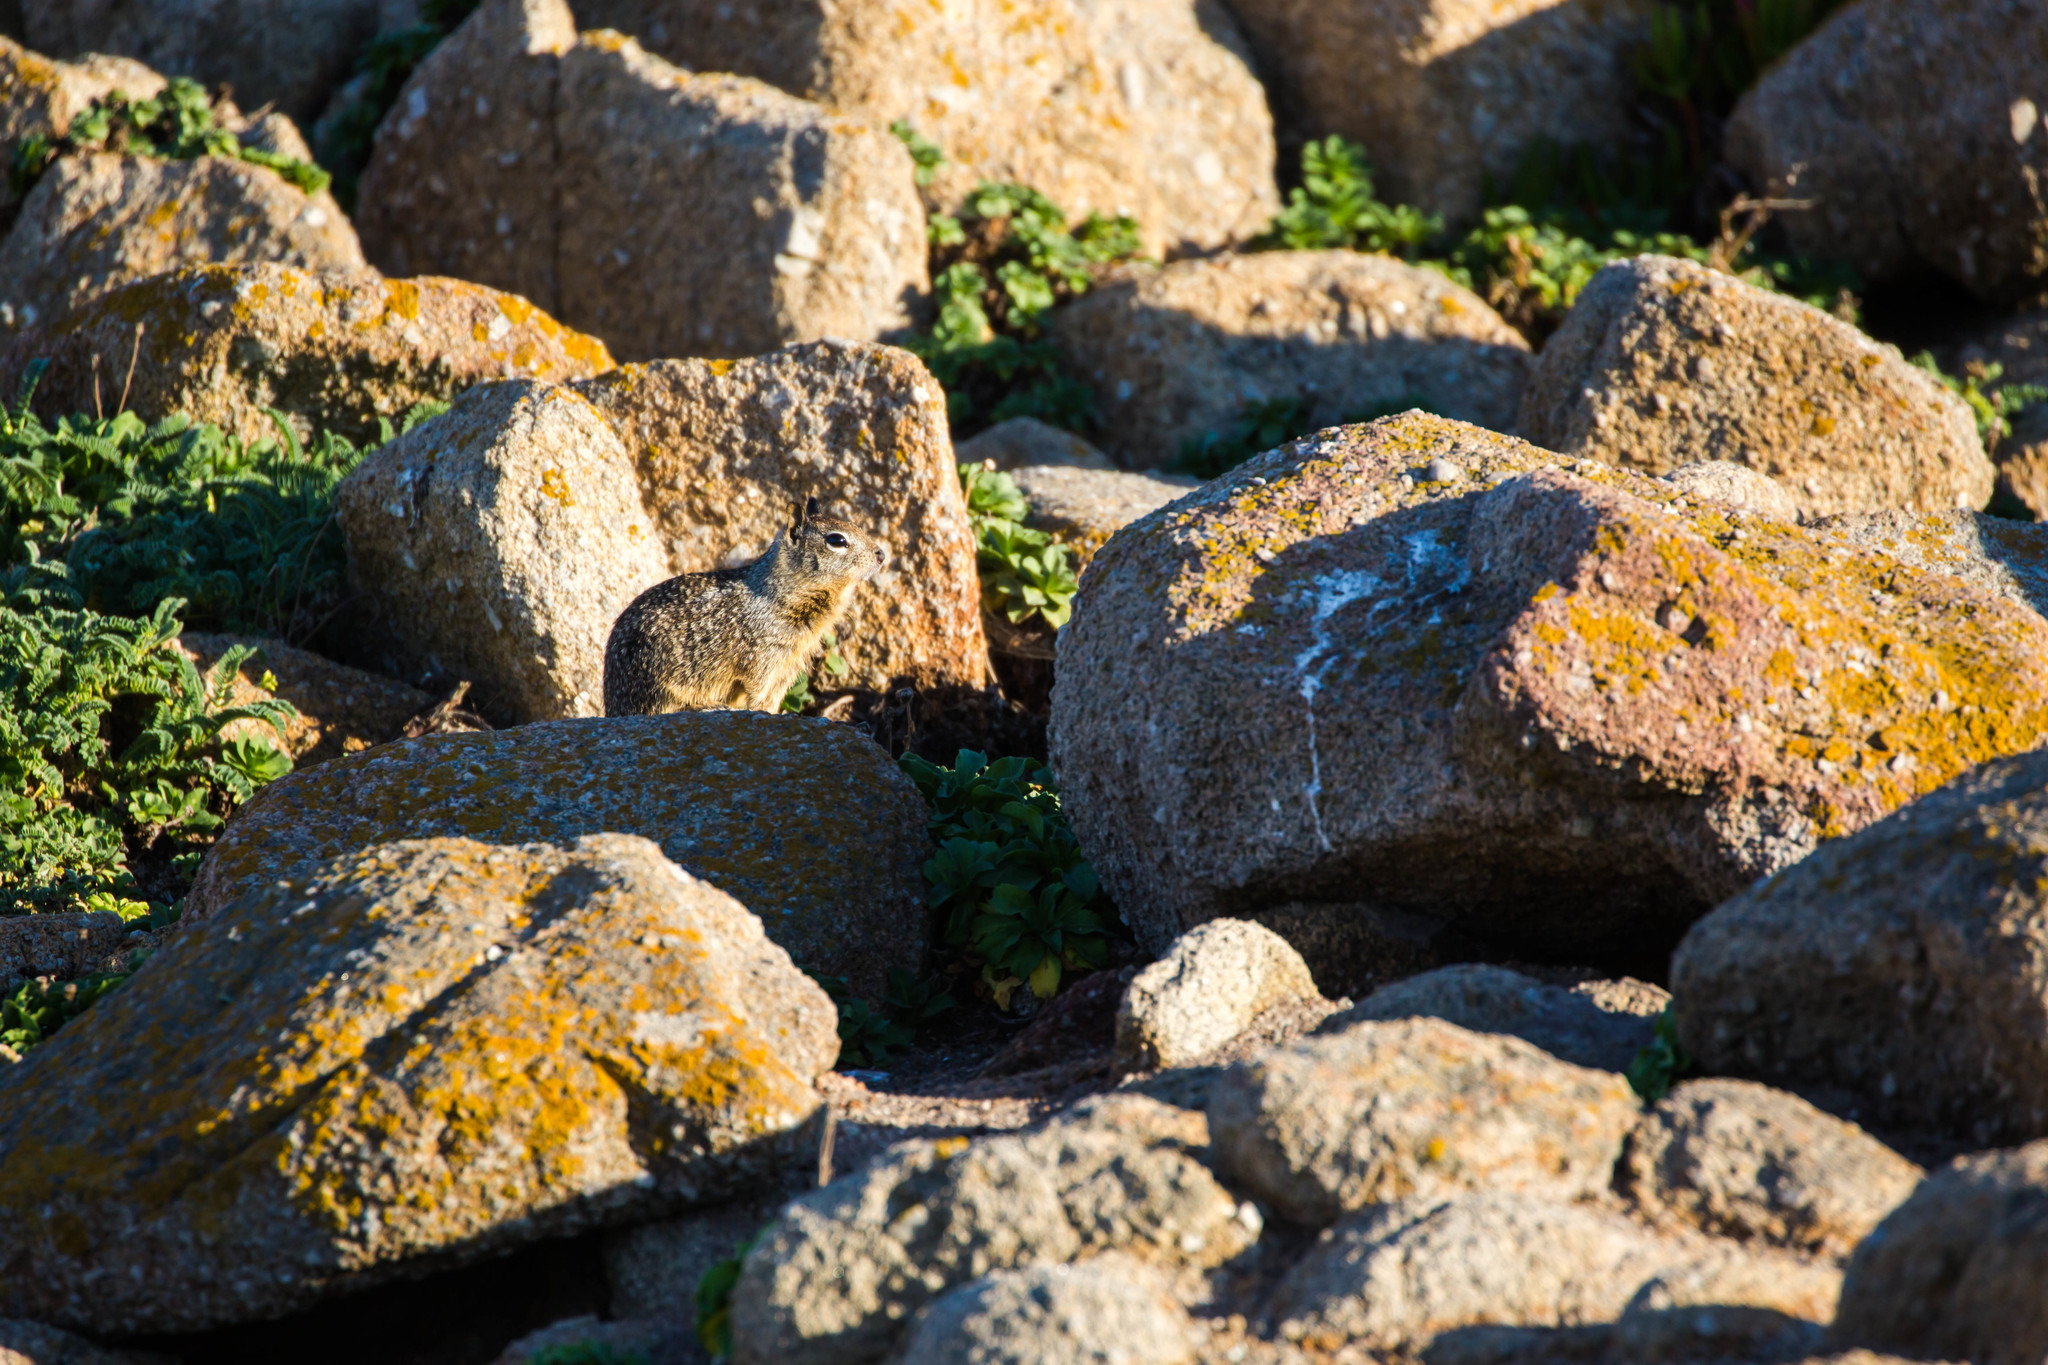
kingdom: Animalia
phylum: Chordata
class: Mammalia
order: Rodentia
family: Sciuridae
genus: Otospermophilus
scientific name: Otospermophilus beecheyi
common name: California ground squirrel
